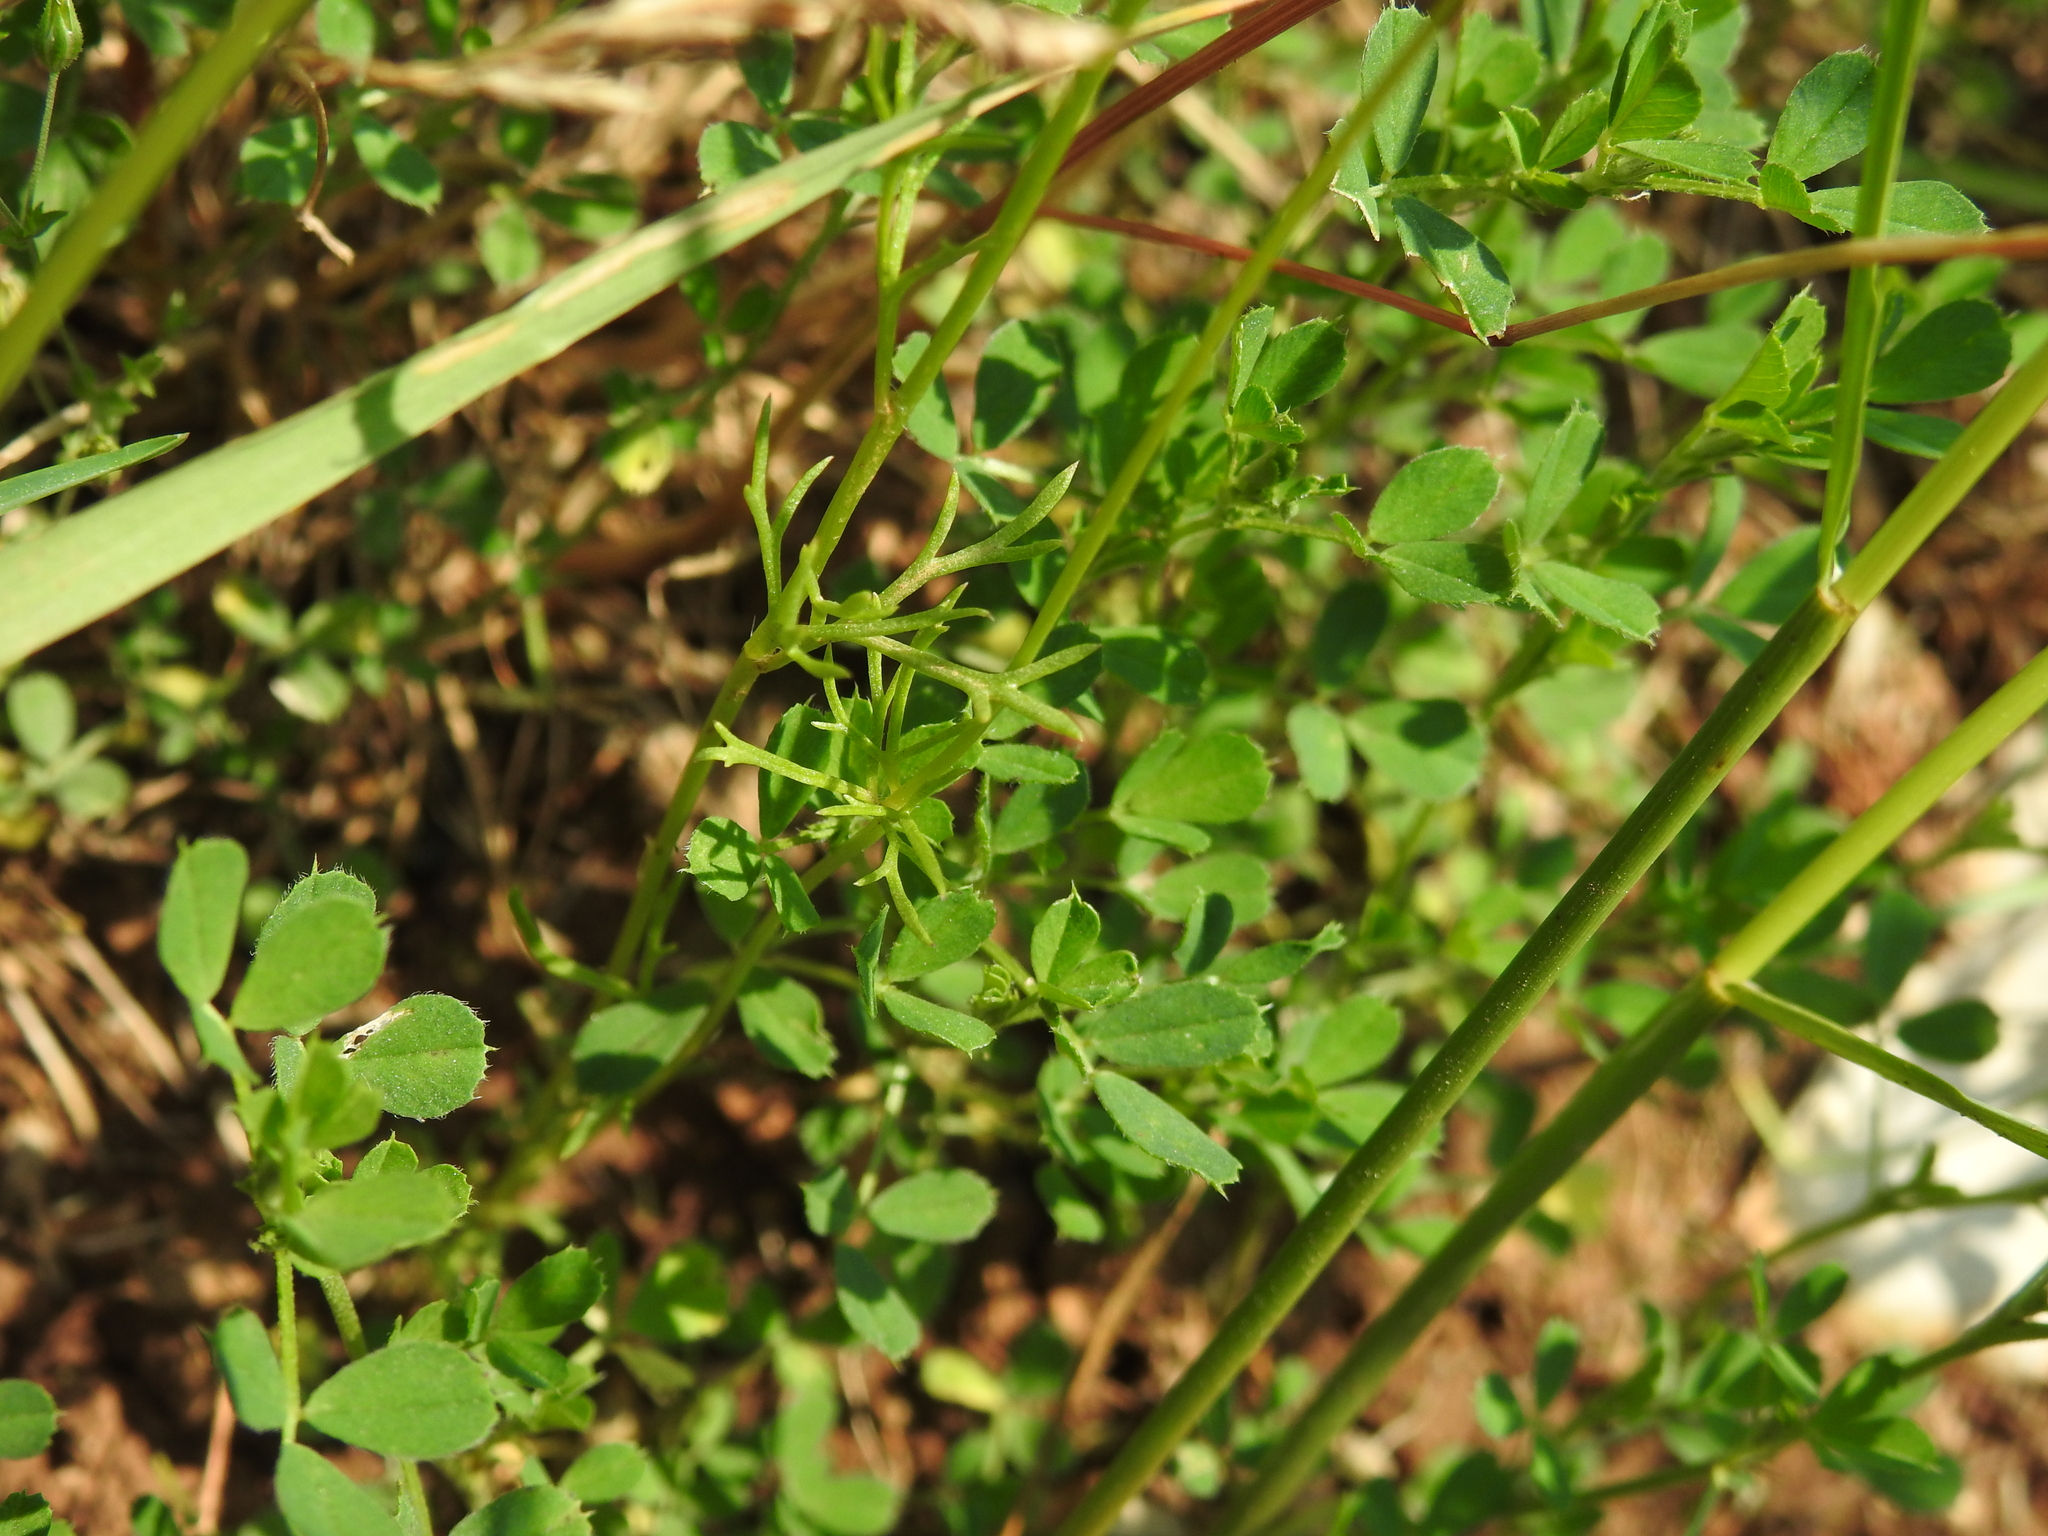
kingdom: Plantae
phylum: Tracheophyta
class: Magnoliopsida
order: Ranunculales
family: Ranunculaceae
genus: Adonis
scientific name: Adonis flammea
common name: Large pheasant's-eye
